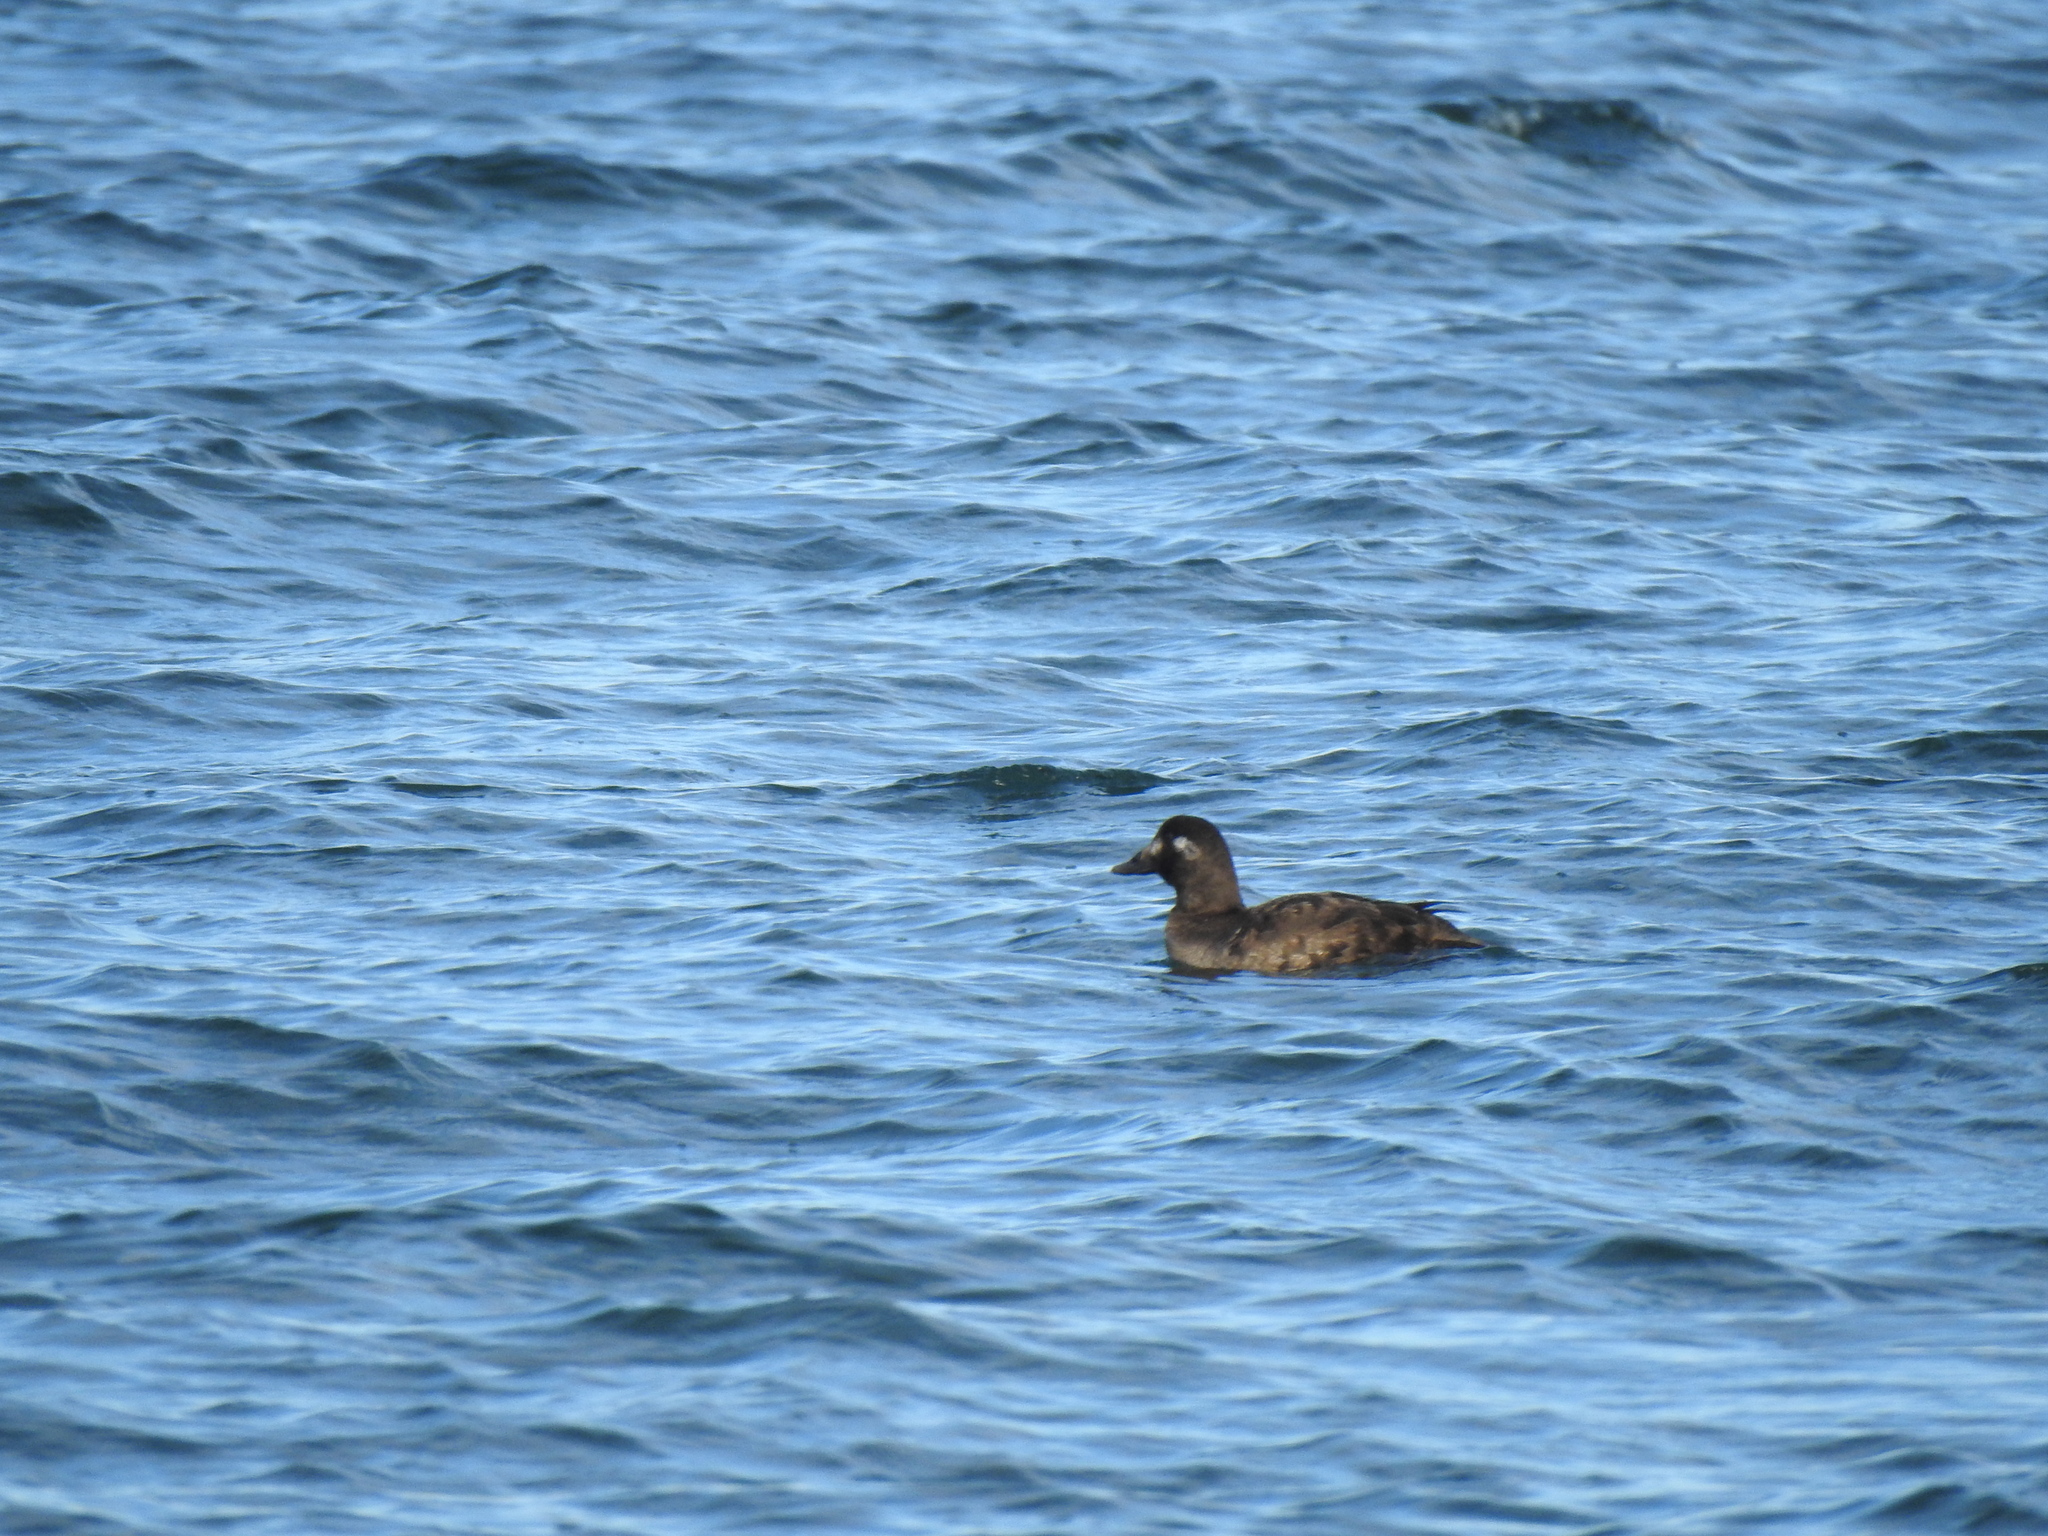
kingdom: Animalia
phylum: Chordata
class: Aves
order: Anseriformes
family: Anatidae
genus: Melanitta
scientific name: Melanitta deglandi
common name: White-winged scoter
